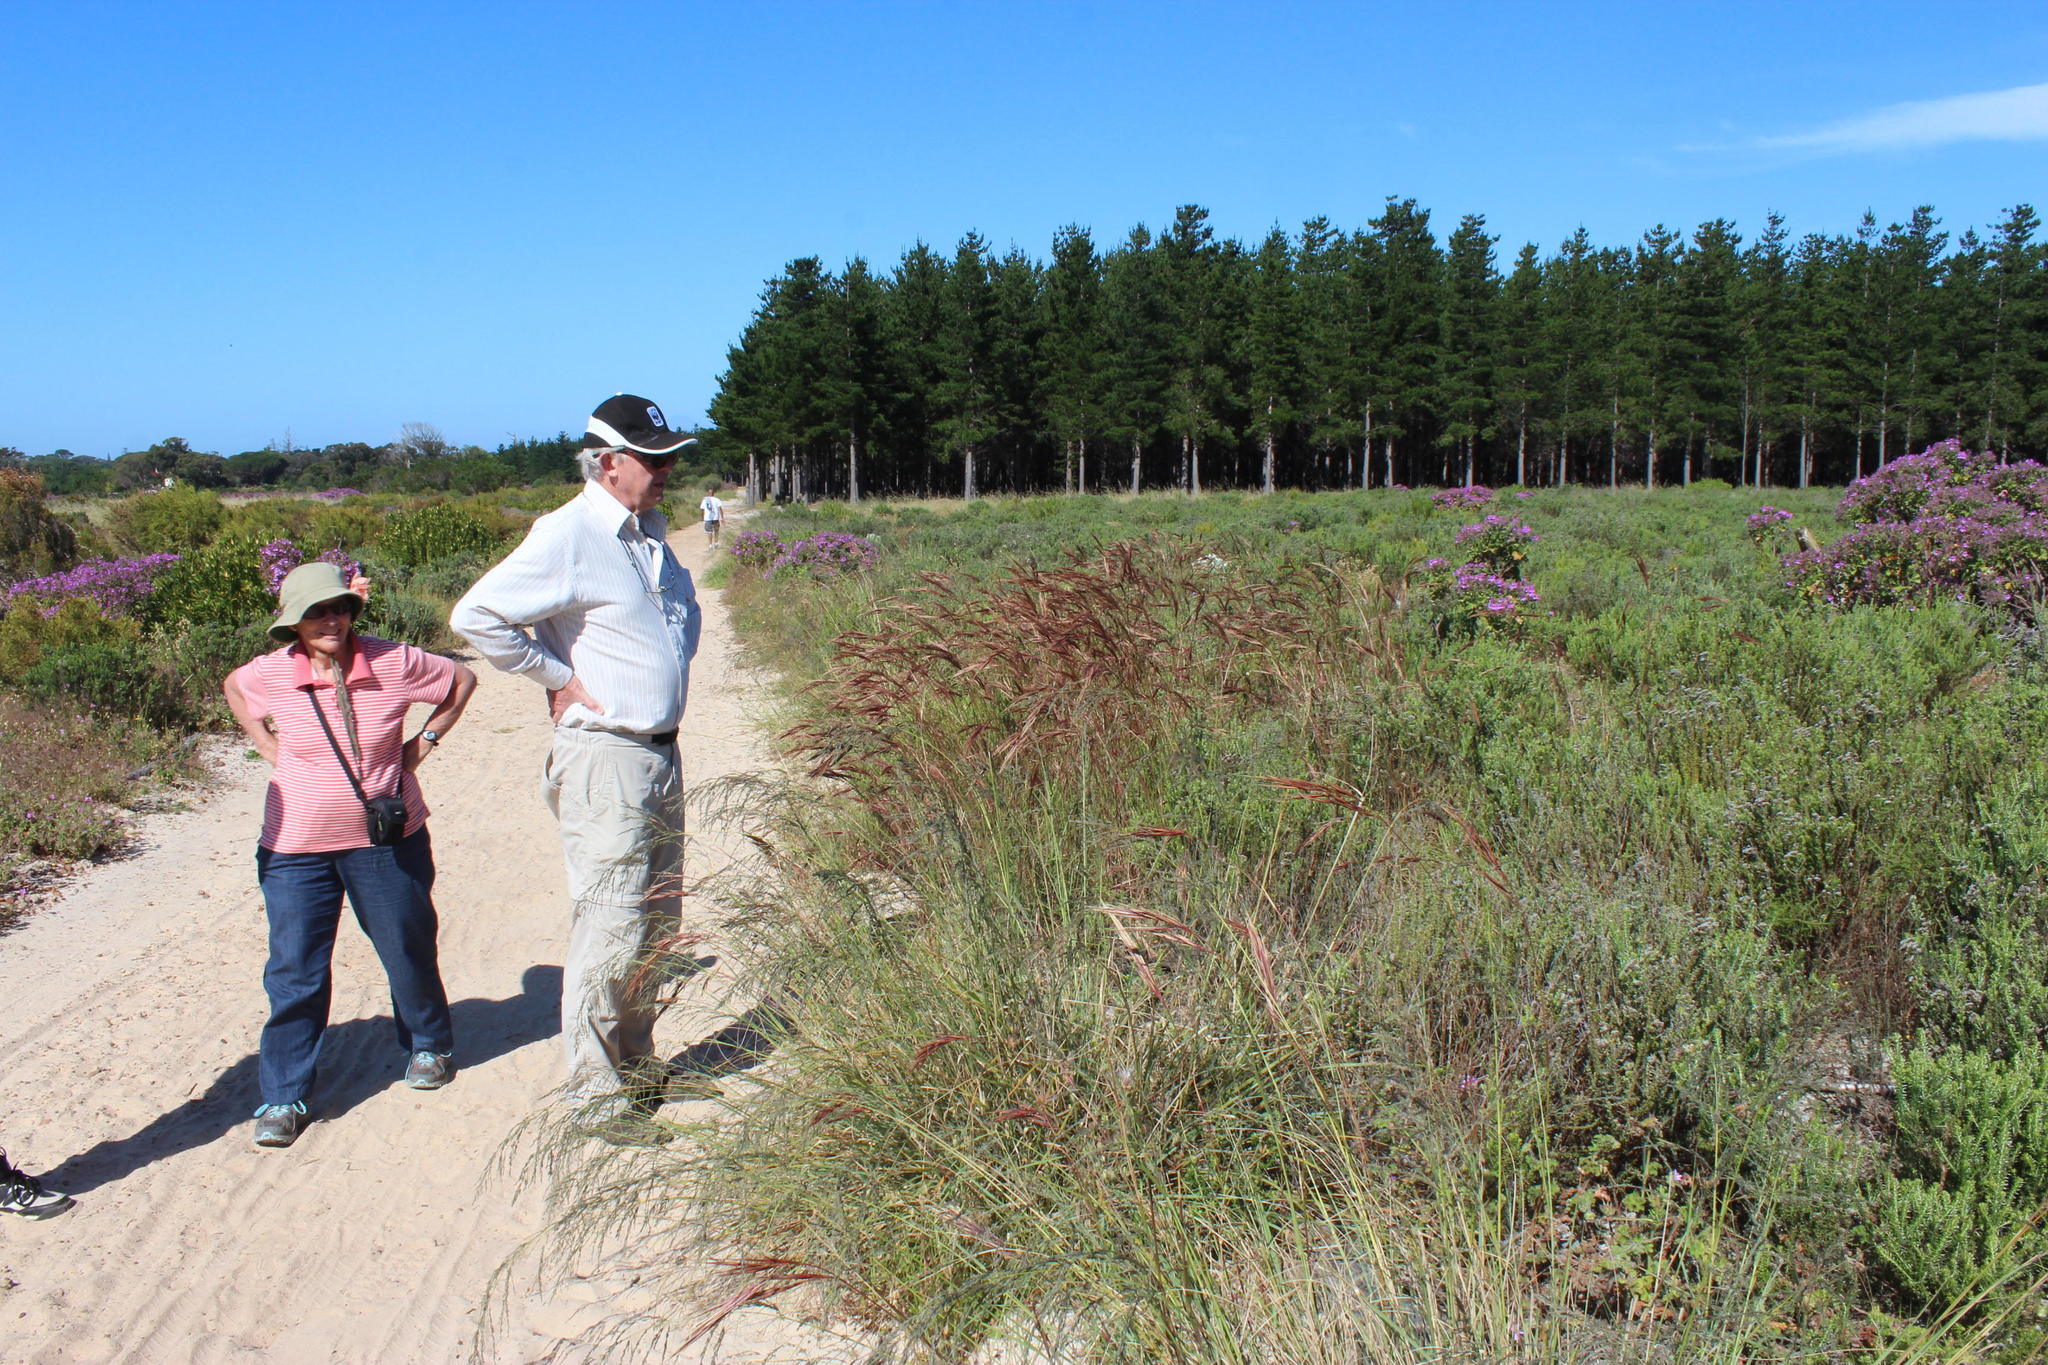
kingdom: Plantae
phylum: Tracheophyta
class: Liliopsida
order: Poales
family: Poaceae
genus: Pseudopentameris
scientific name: Pseudopentameris caespitosa
